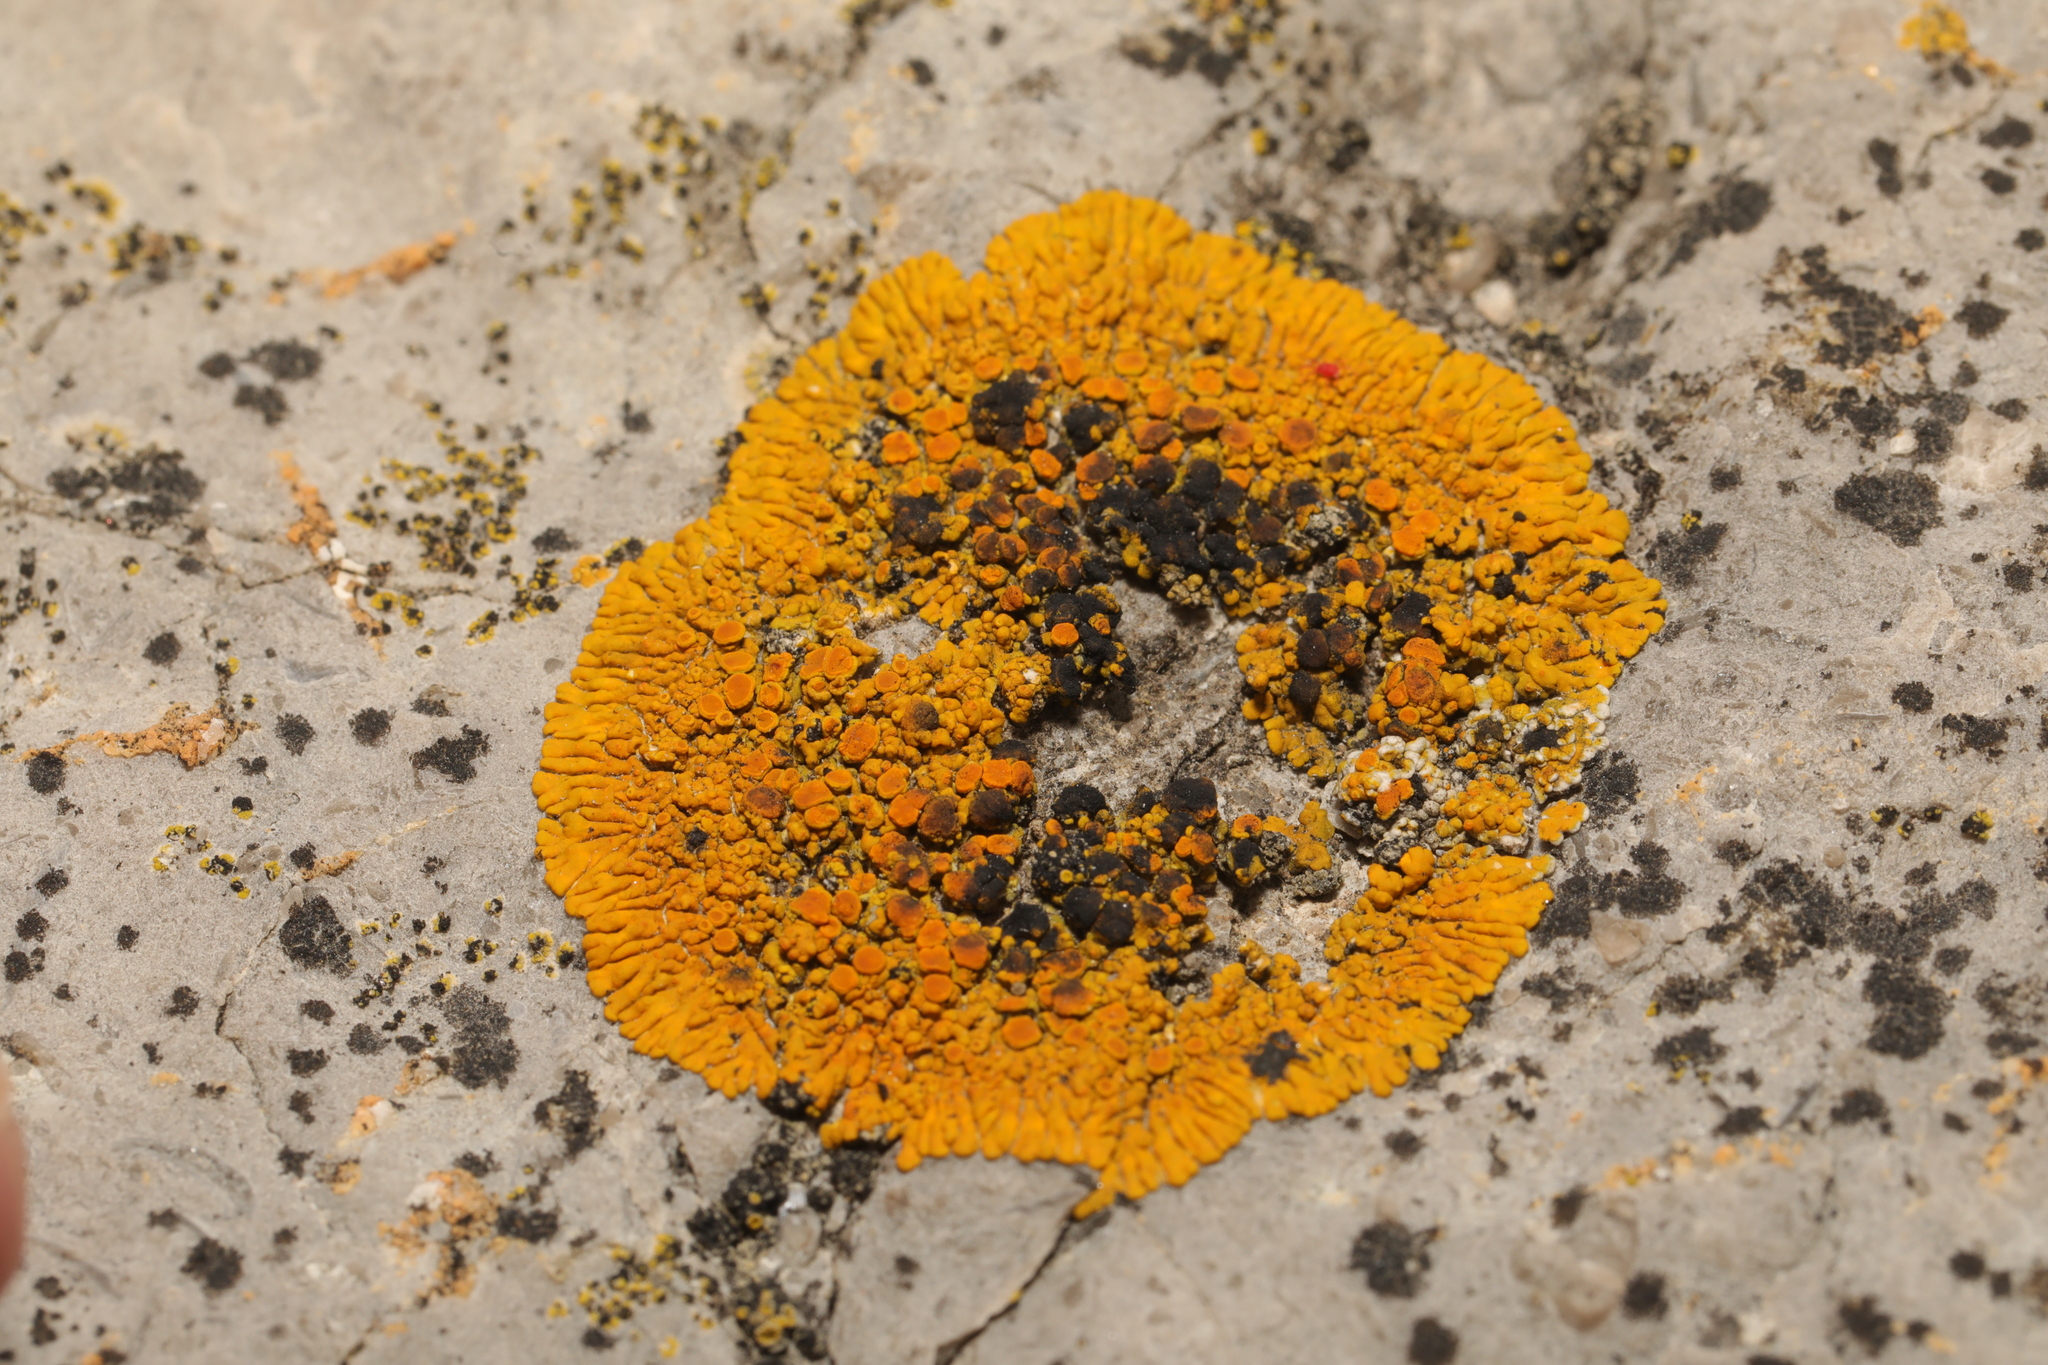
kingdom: Fungi
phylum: Ascomycota
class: Lecanoromycetes
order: Teloschistales
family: Teloschistaceae
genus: Variospora
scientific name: Variospora thallincola
